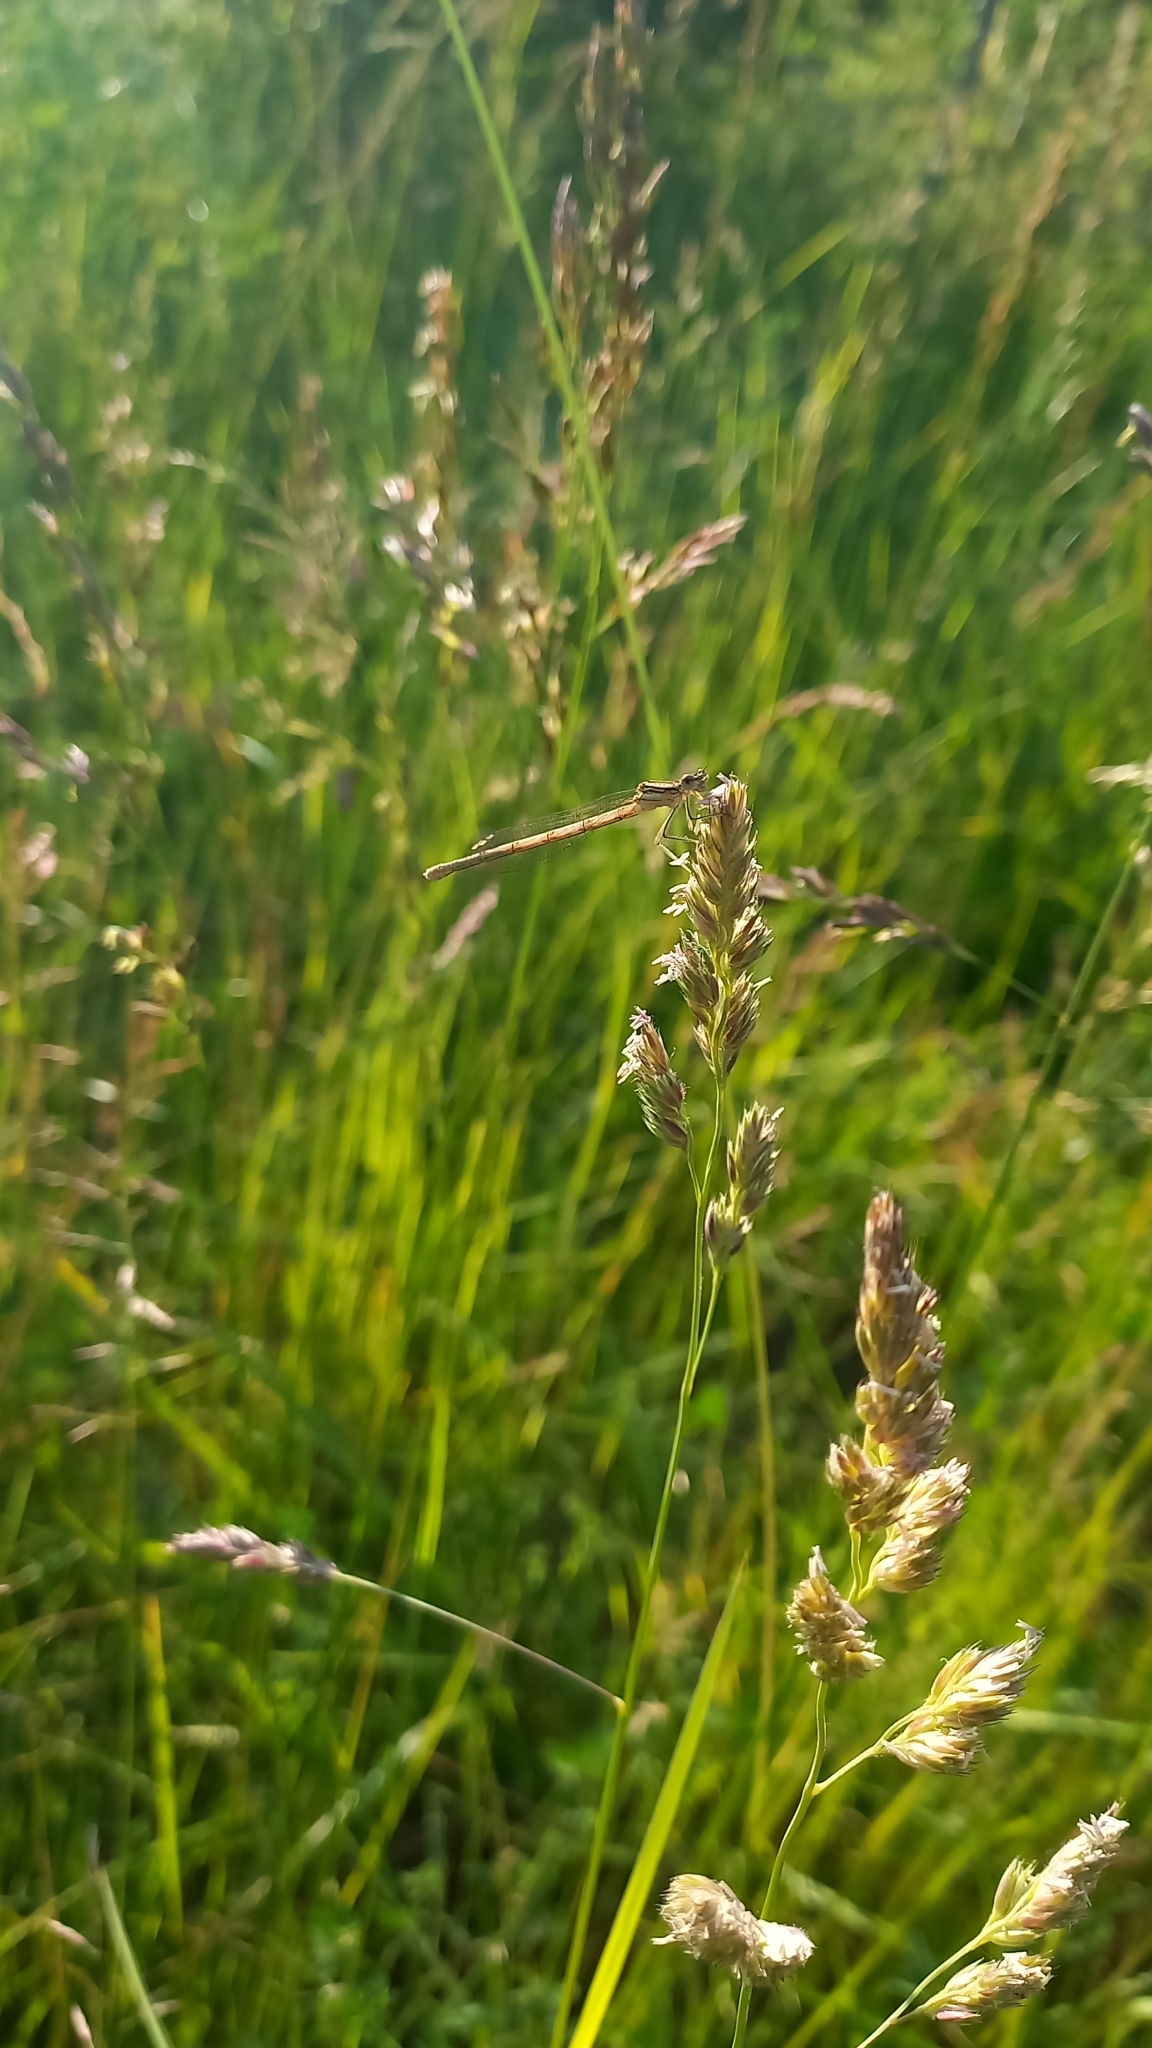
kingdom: Animalia
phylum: Arthropoda
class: Insecta
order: Odonata
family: Platycnemididae
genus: Platycnemis
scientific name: Platycnemis pennipes
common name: White-legged damselfly
